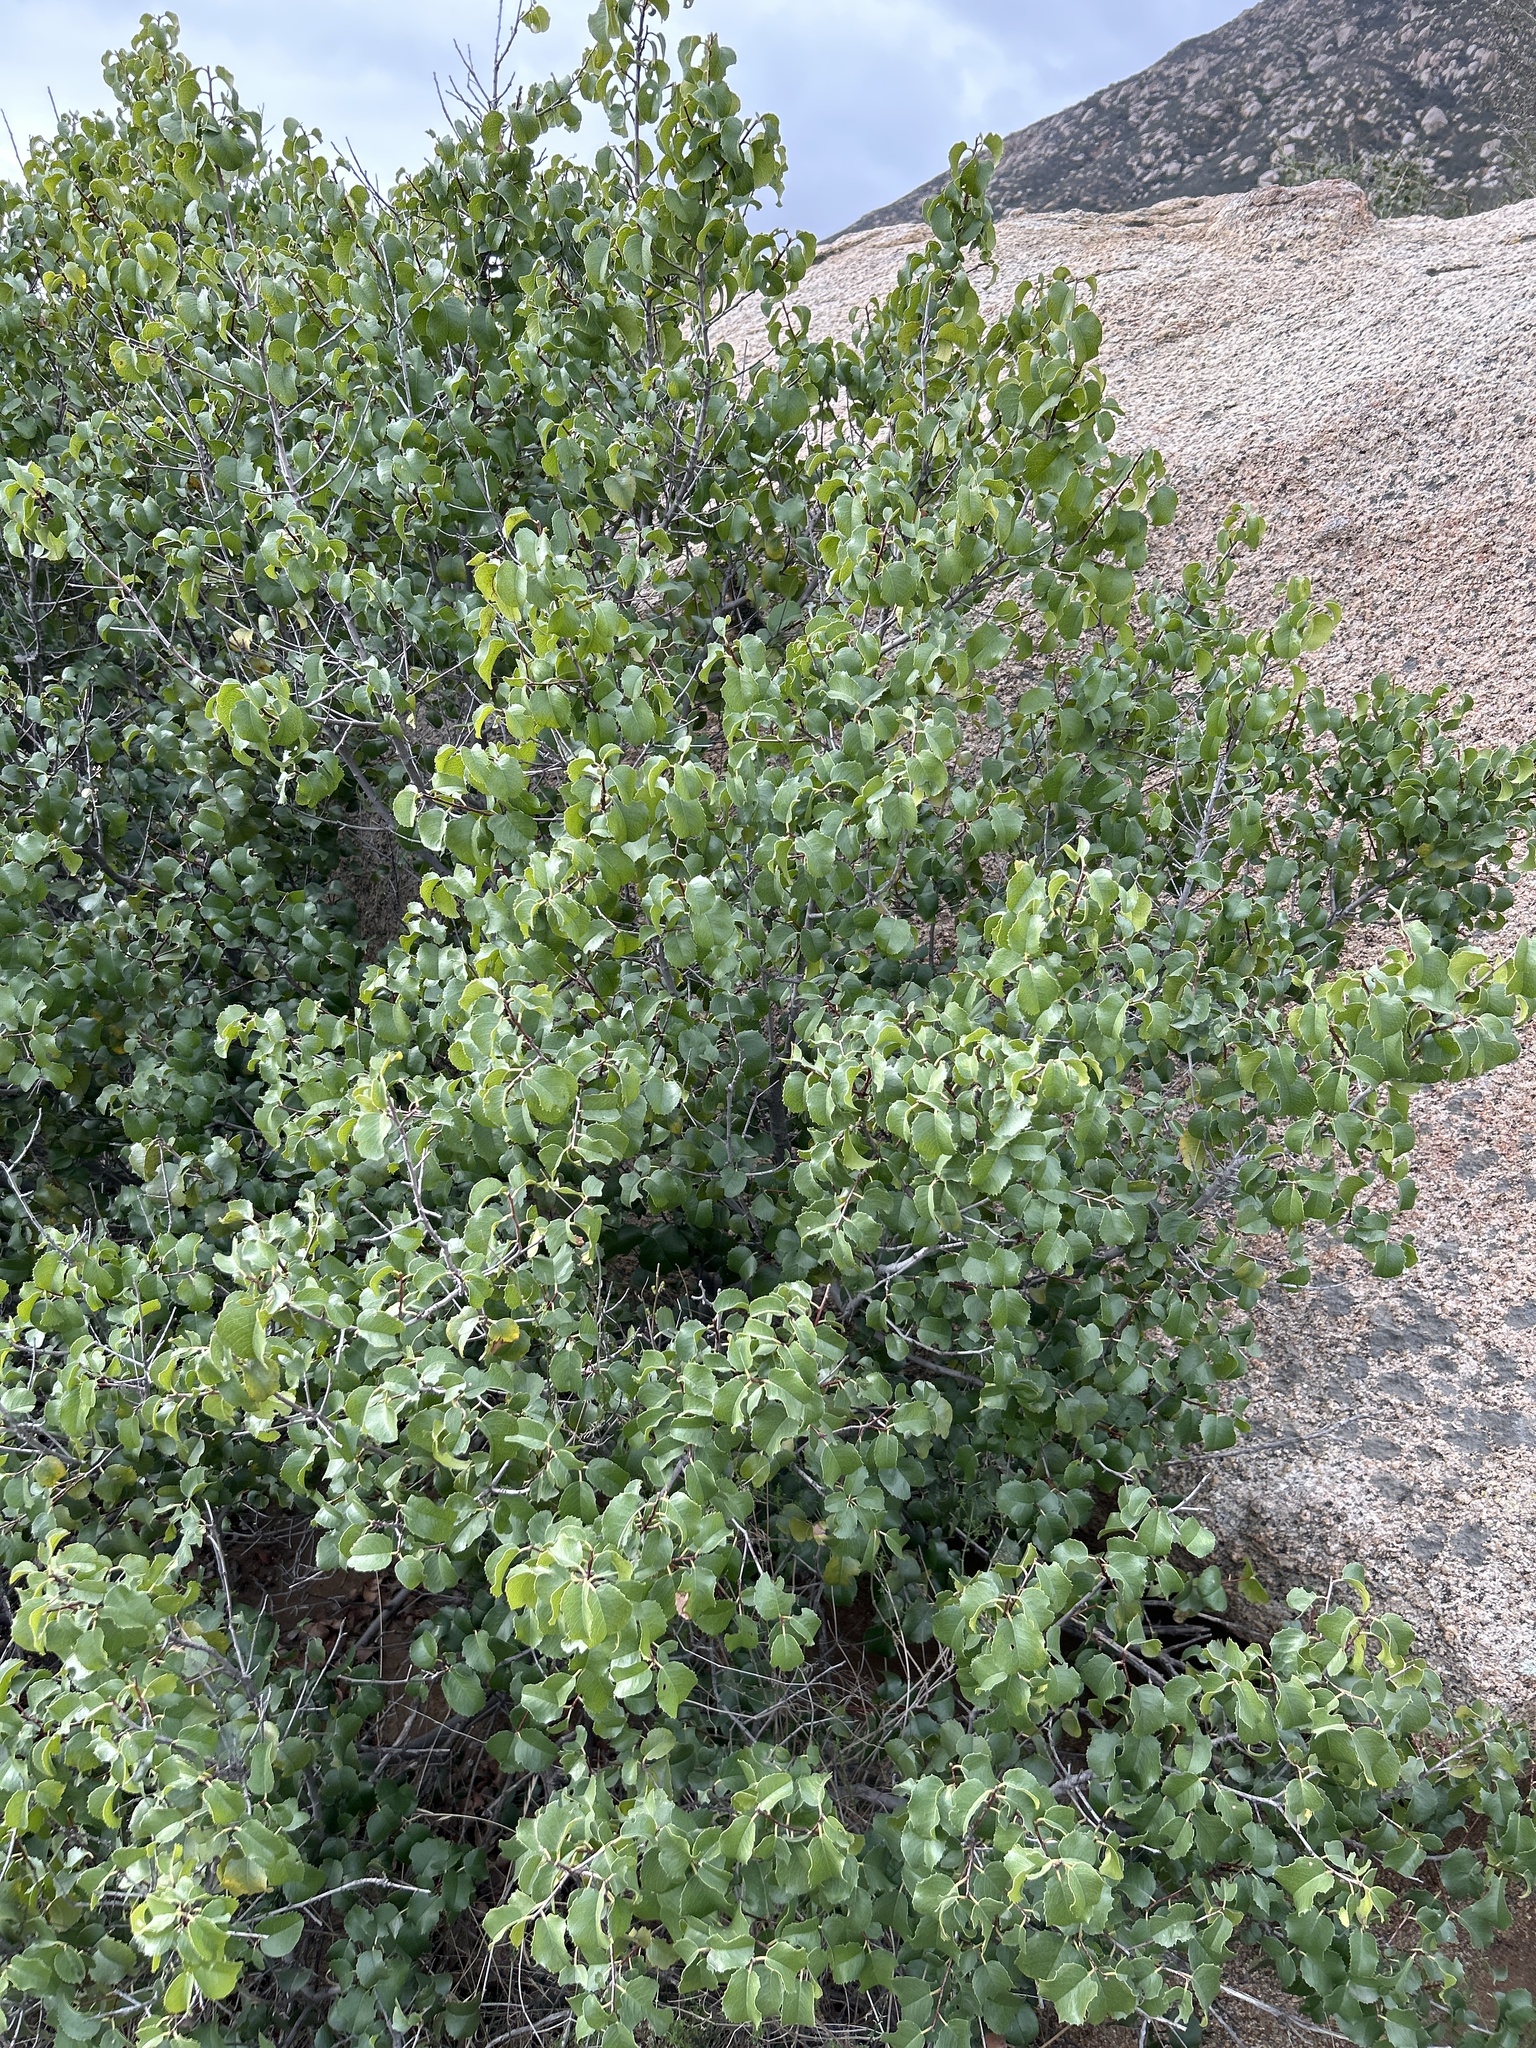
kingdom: Plantae
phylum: Tracheophyta
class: Magnoliopsida
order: Rosales
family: Rosaceae
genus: Prunus
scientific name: Prunus ilicifolia
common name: Hollyleaf cherry
